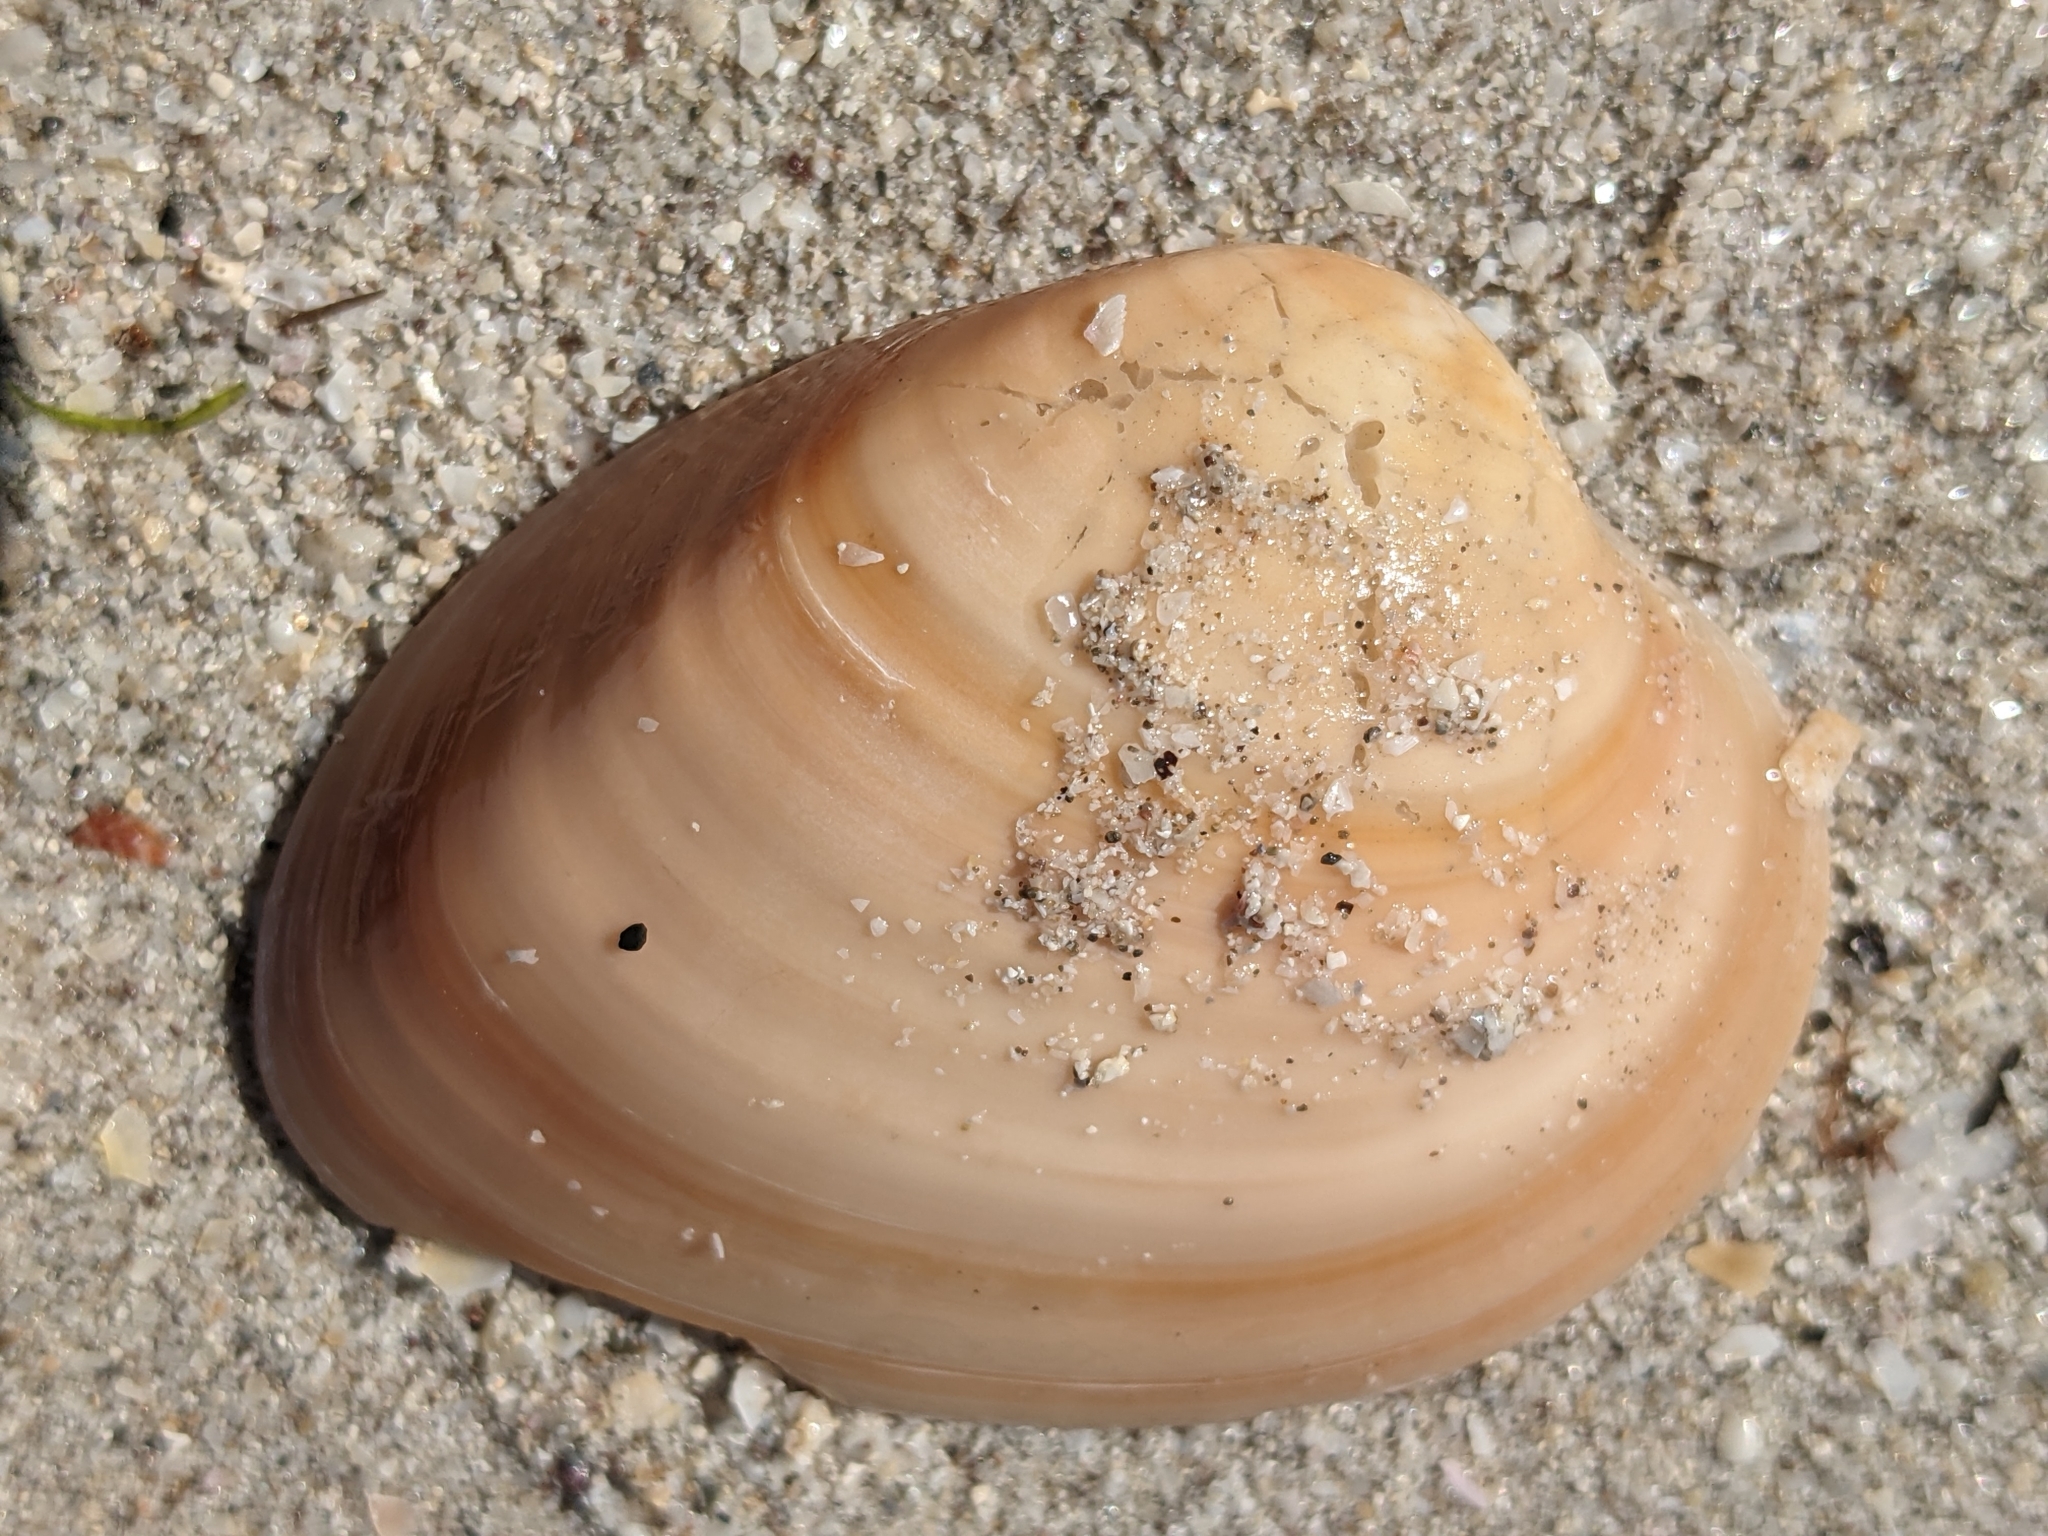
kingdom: Animalia
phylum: Mollusca
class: Bivalvia
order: Venerida
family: Veneridae
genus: Megapitaria
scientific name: Megapitaria aurantiaca
